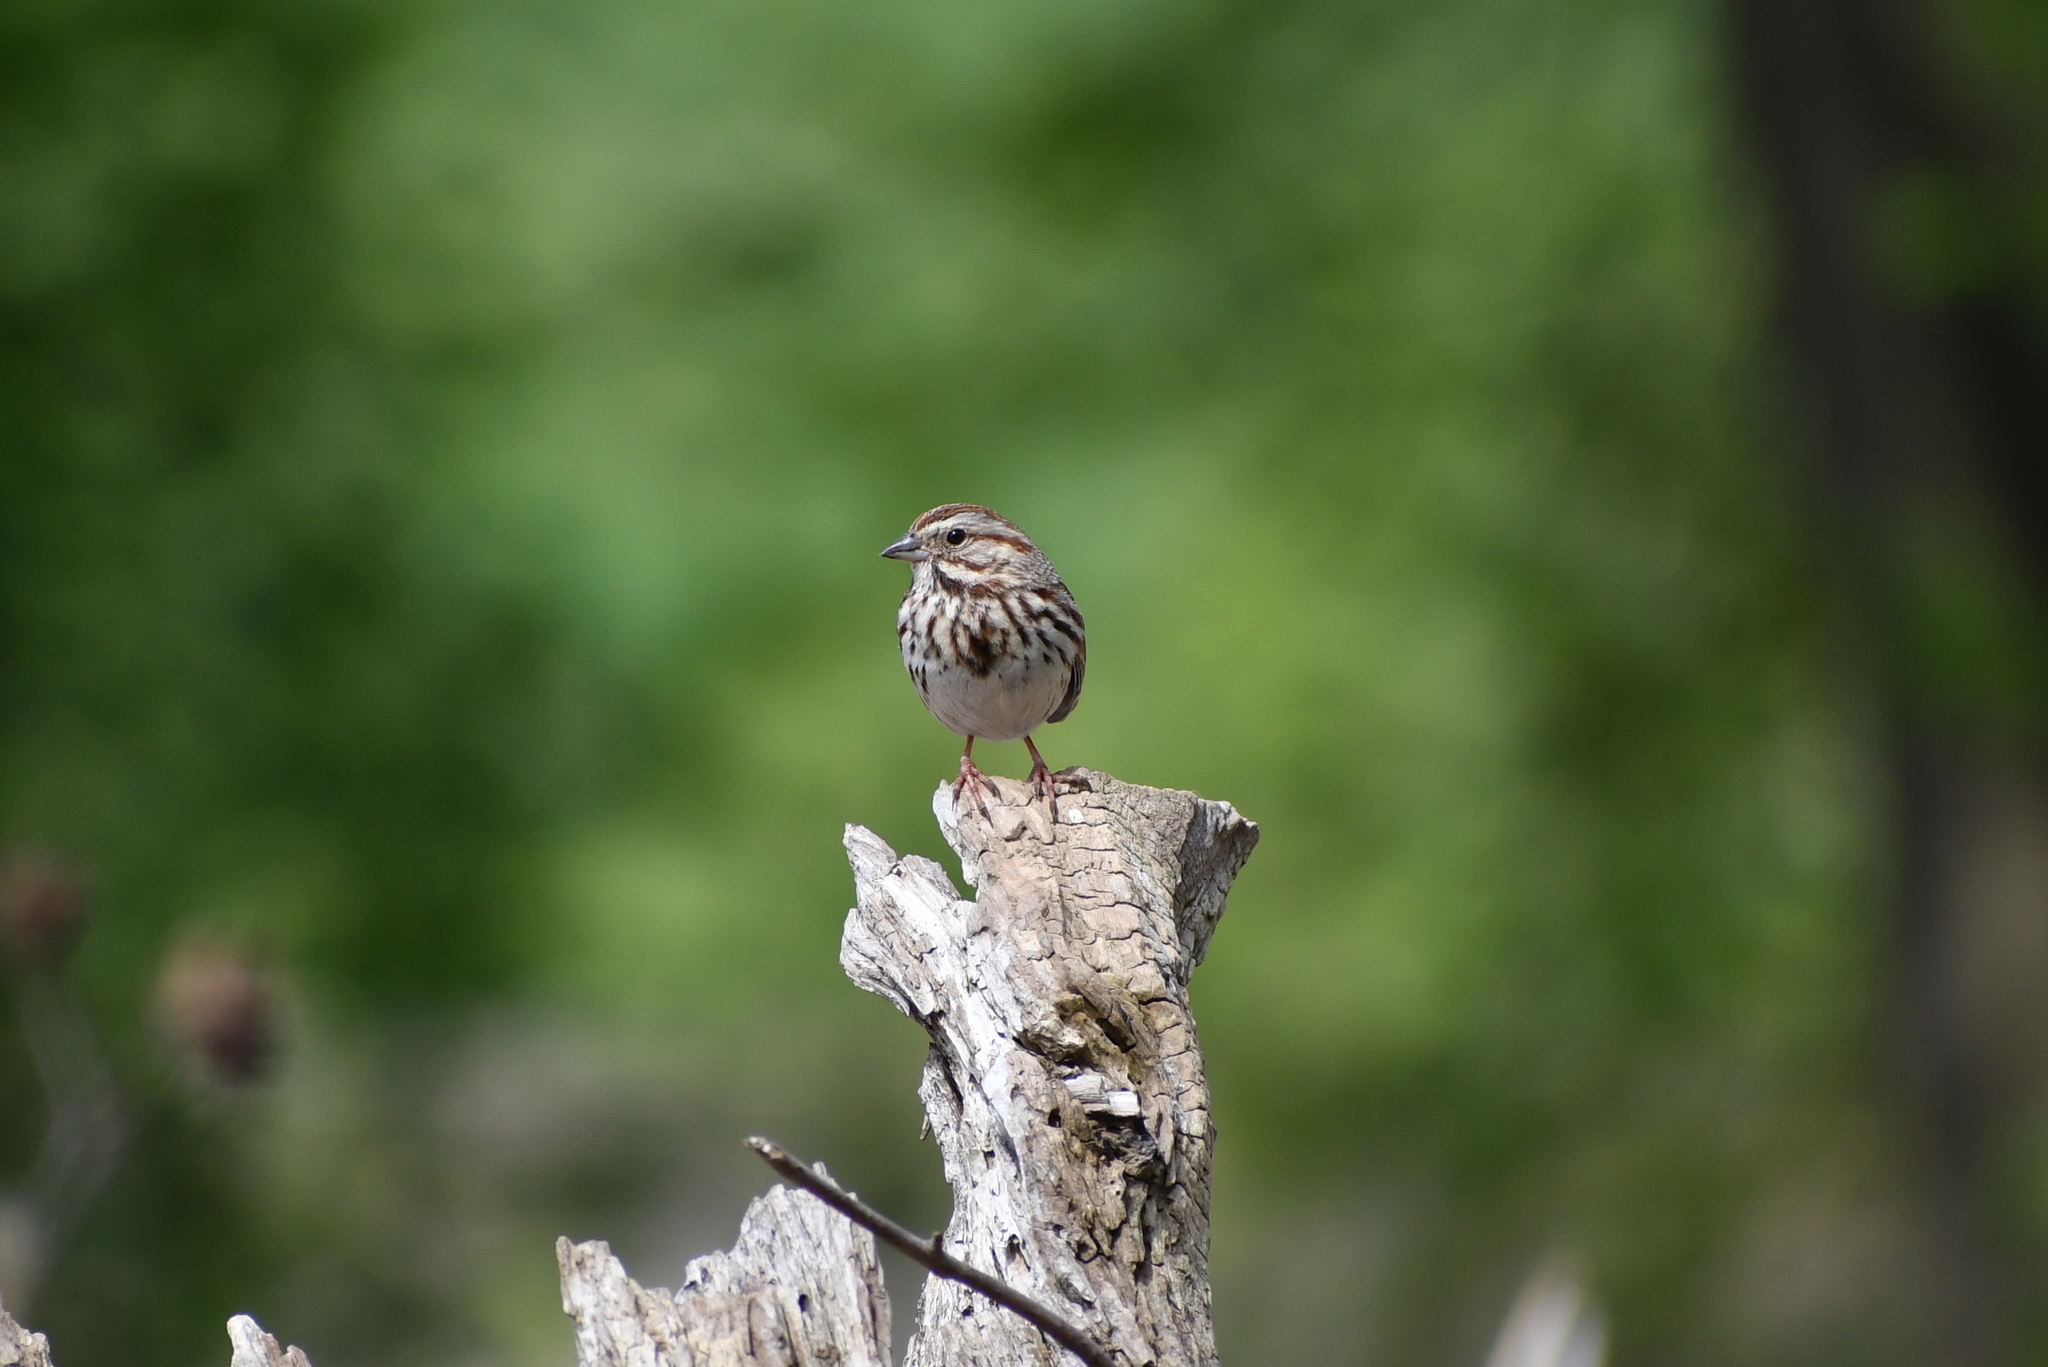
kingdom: Animalia
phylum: Chordata
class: Aves
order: Passeriformes
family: Passerellidae
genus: Melospiza
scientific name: Melospiza melodia
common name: Song sparrow
